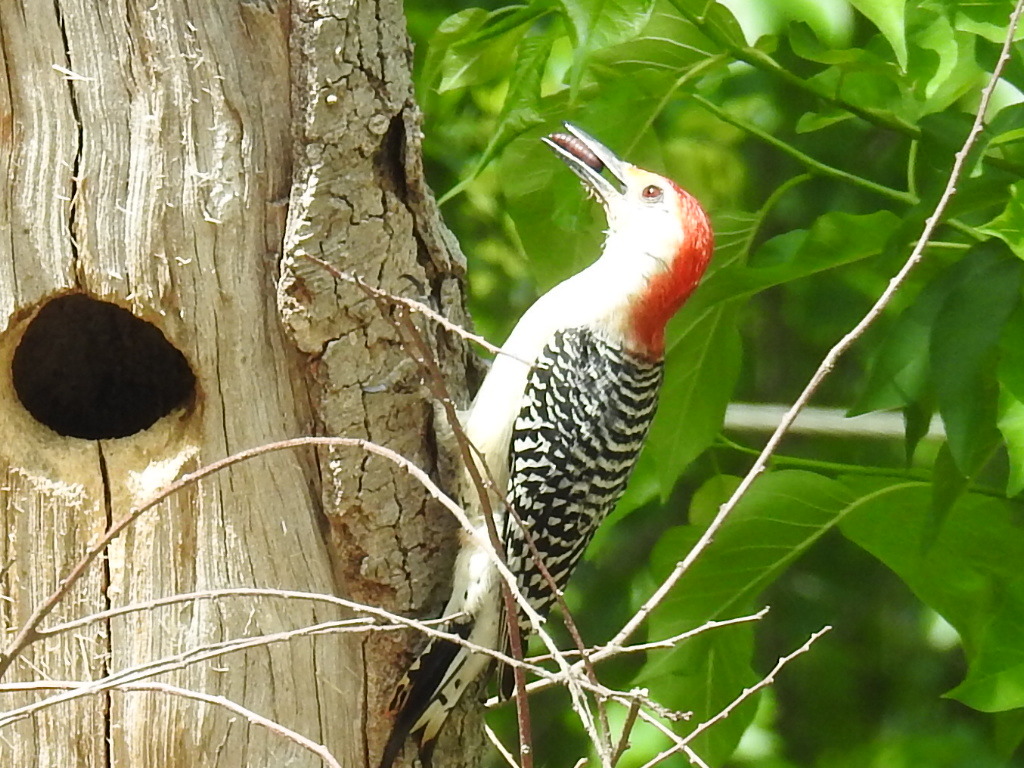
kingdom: Animalia
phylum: Chordata
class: Aves
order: Piciformes
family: Picidae
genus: Melanerpes
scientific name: Melanerpes carolinus
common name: Red-bellied woodpecker
